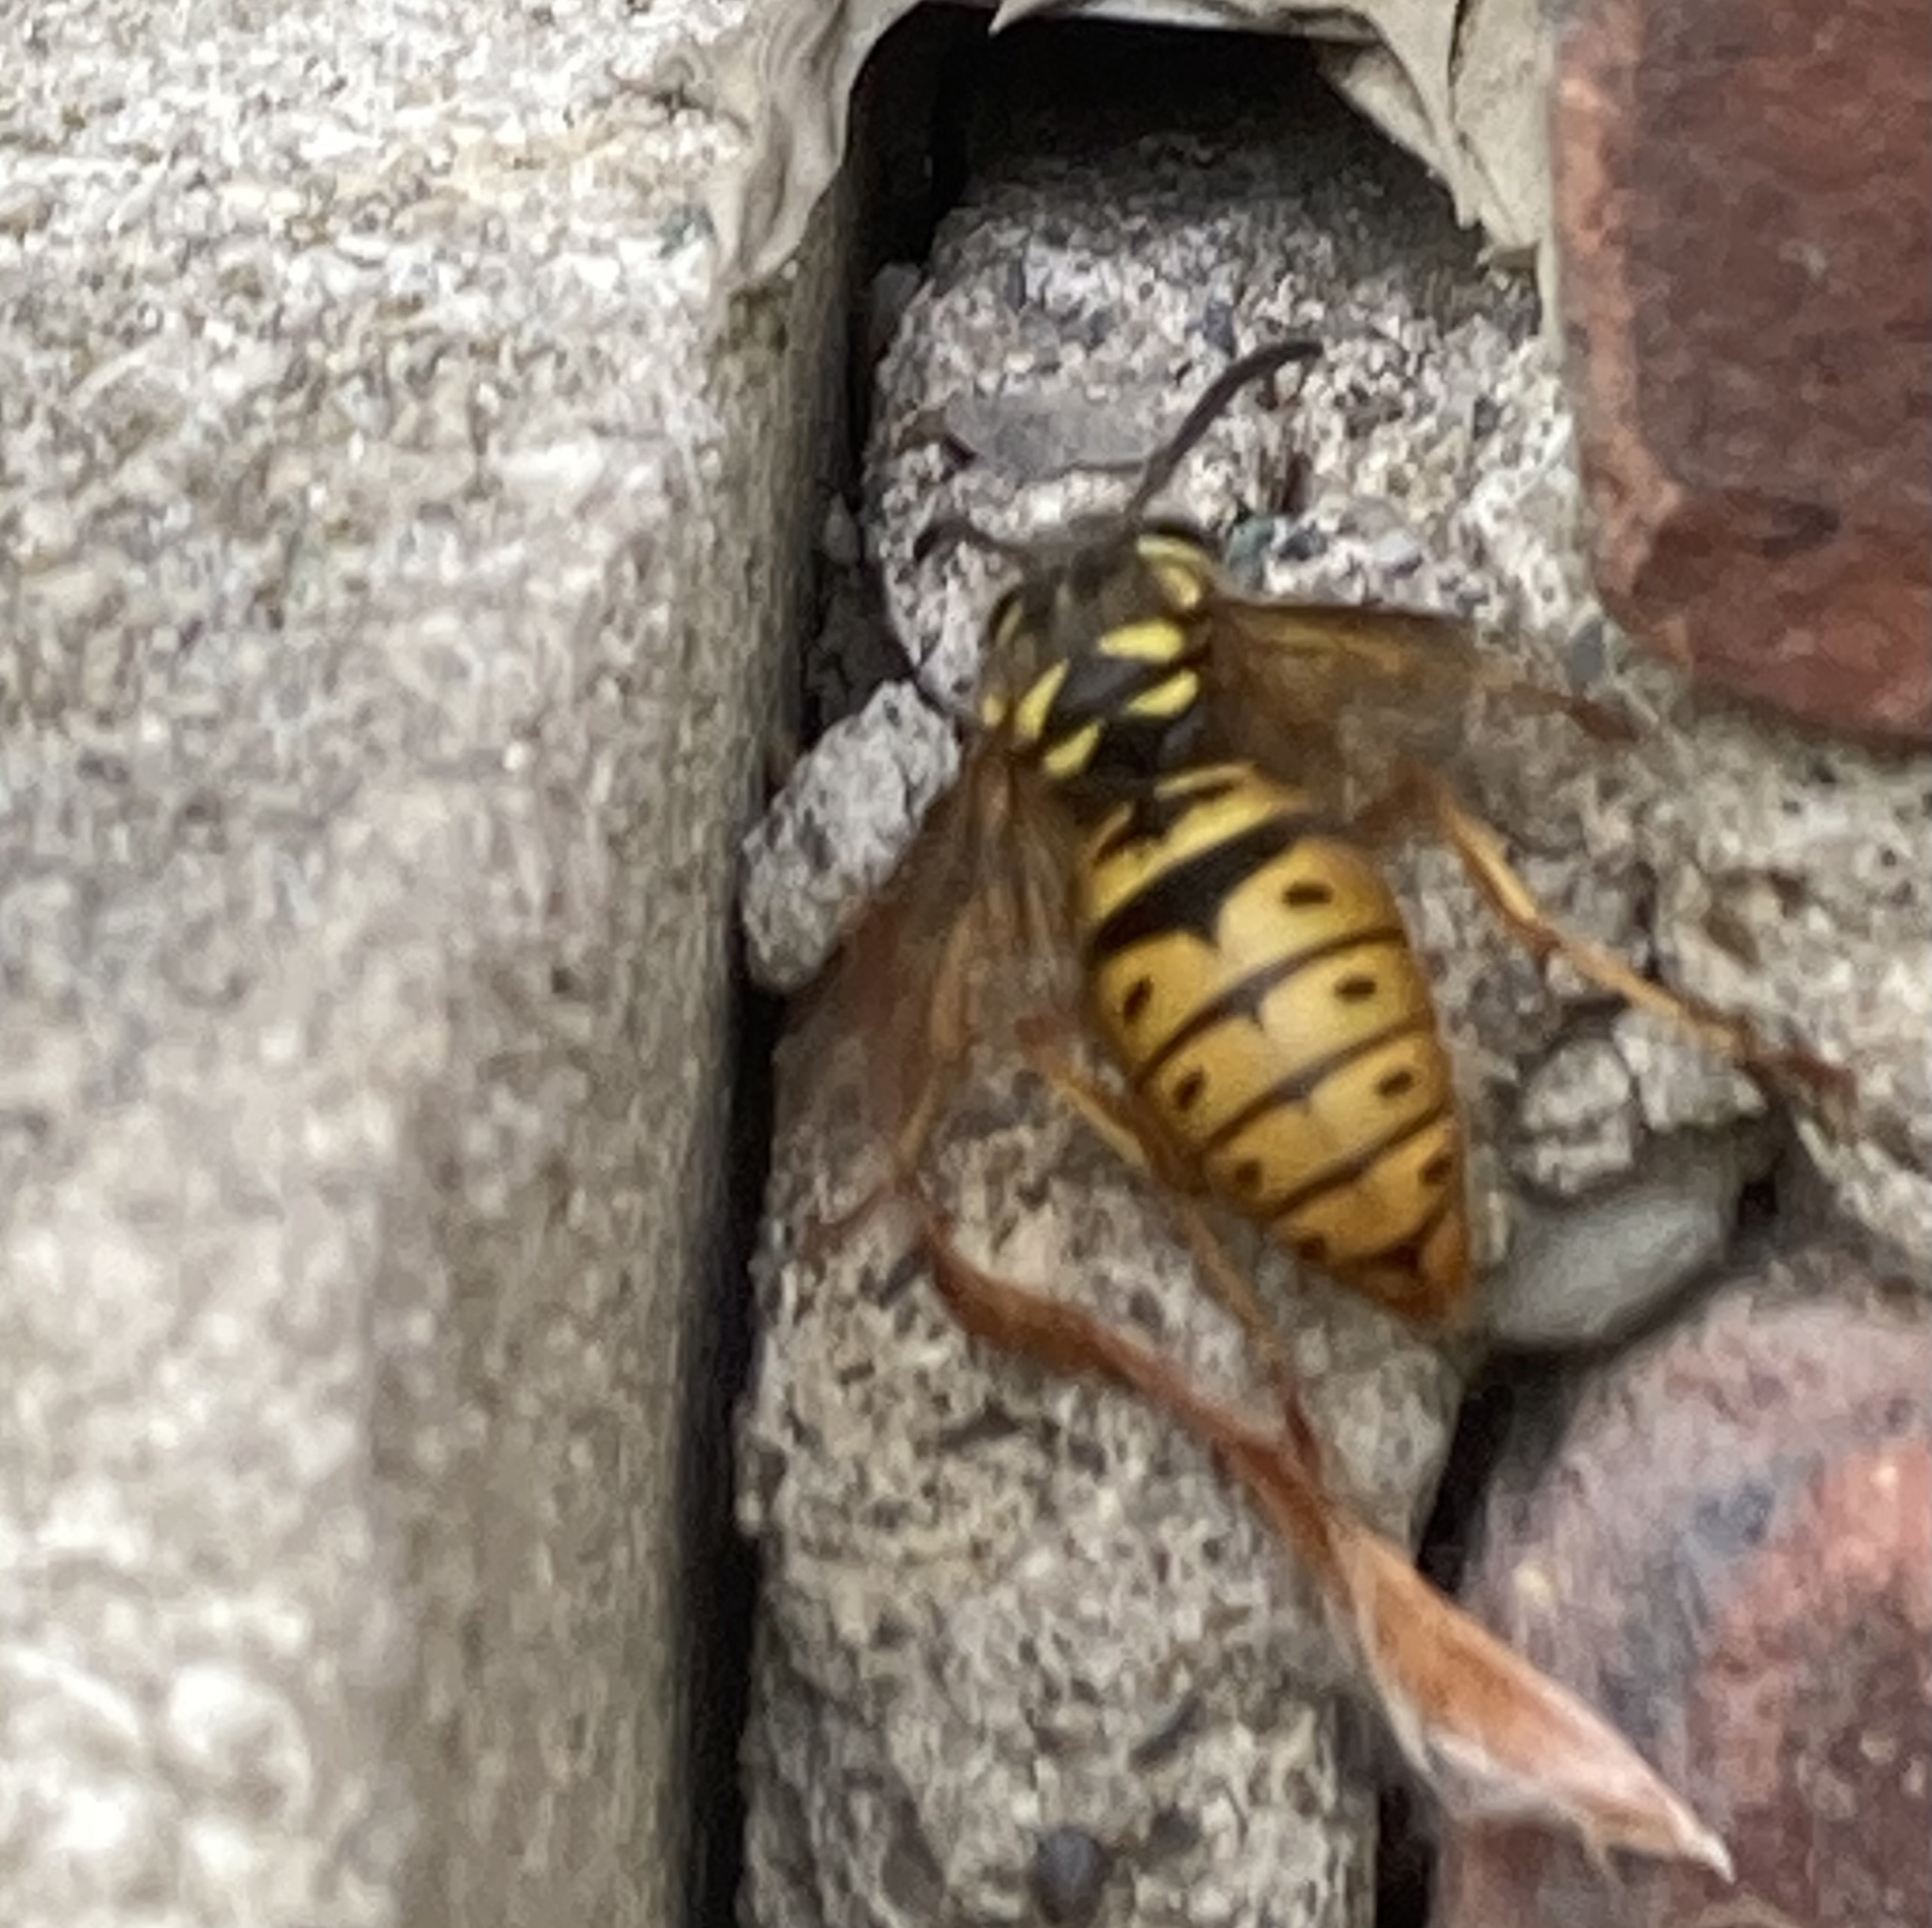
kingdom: Animalia
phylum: Arthropoda
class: Insecta
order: Hymenoptera
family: Vespidae
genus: Vespula
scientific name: Vespula maculifrons
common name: Eastern yellowjacket
